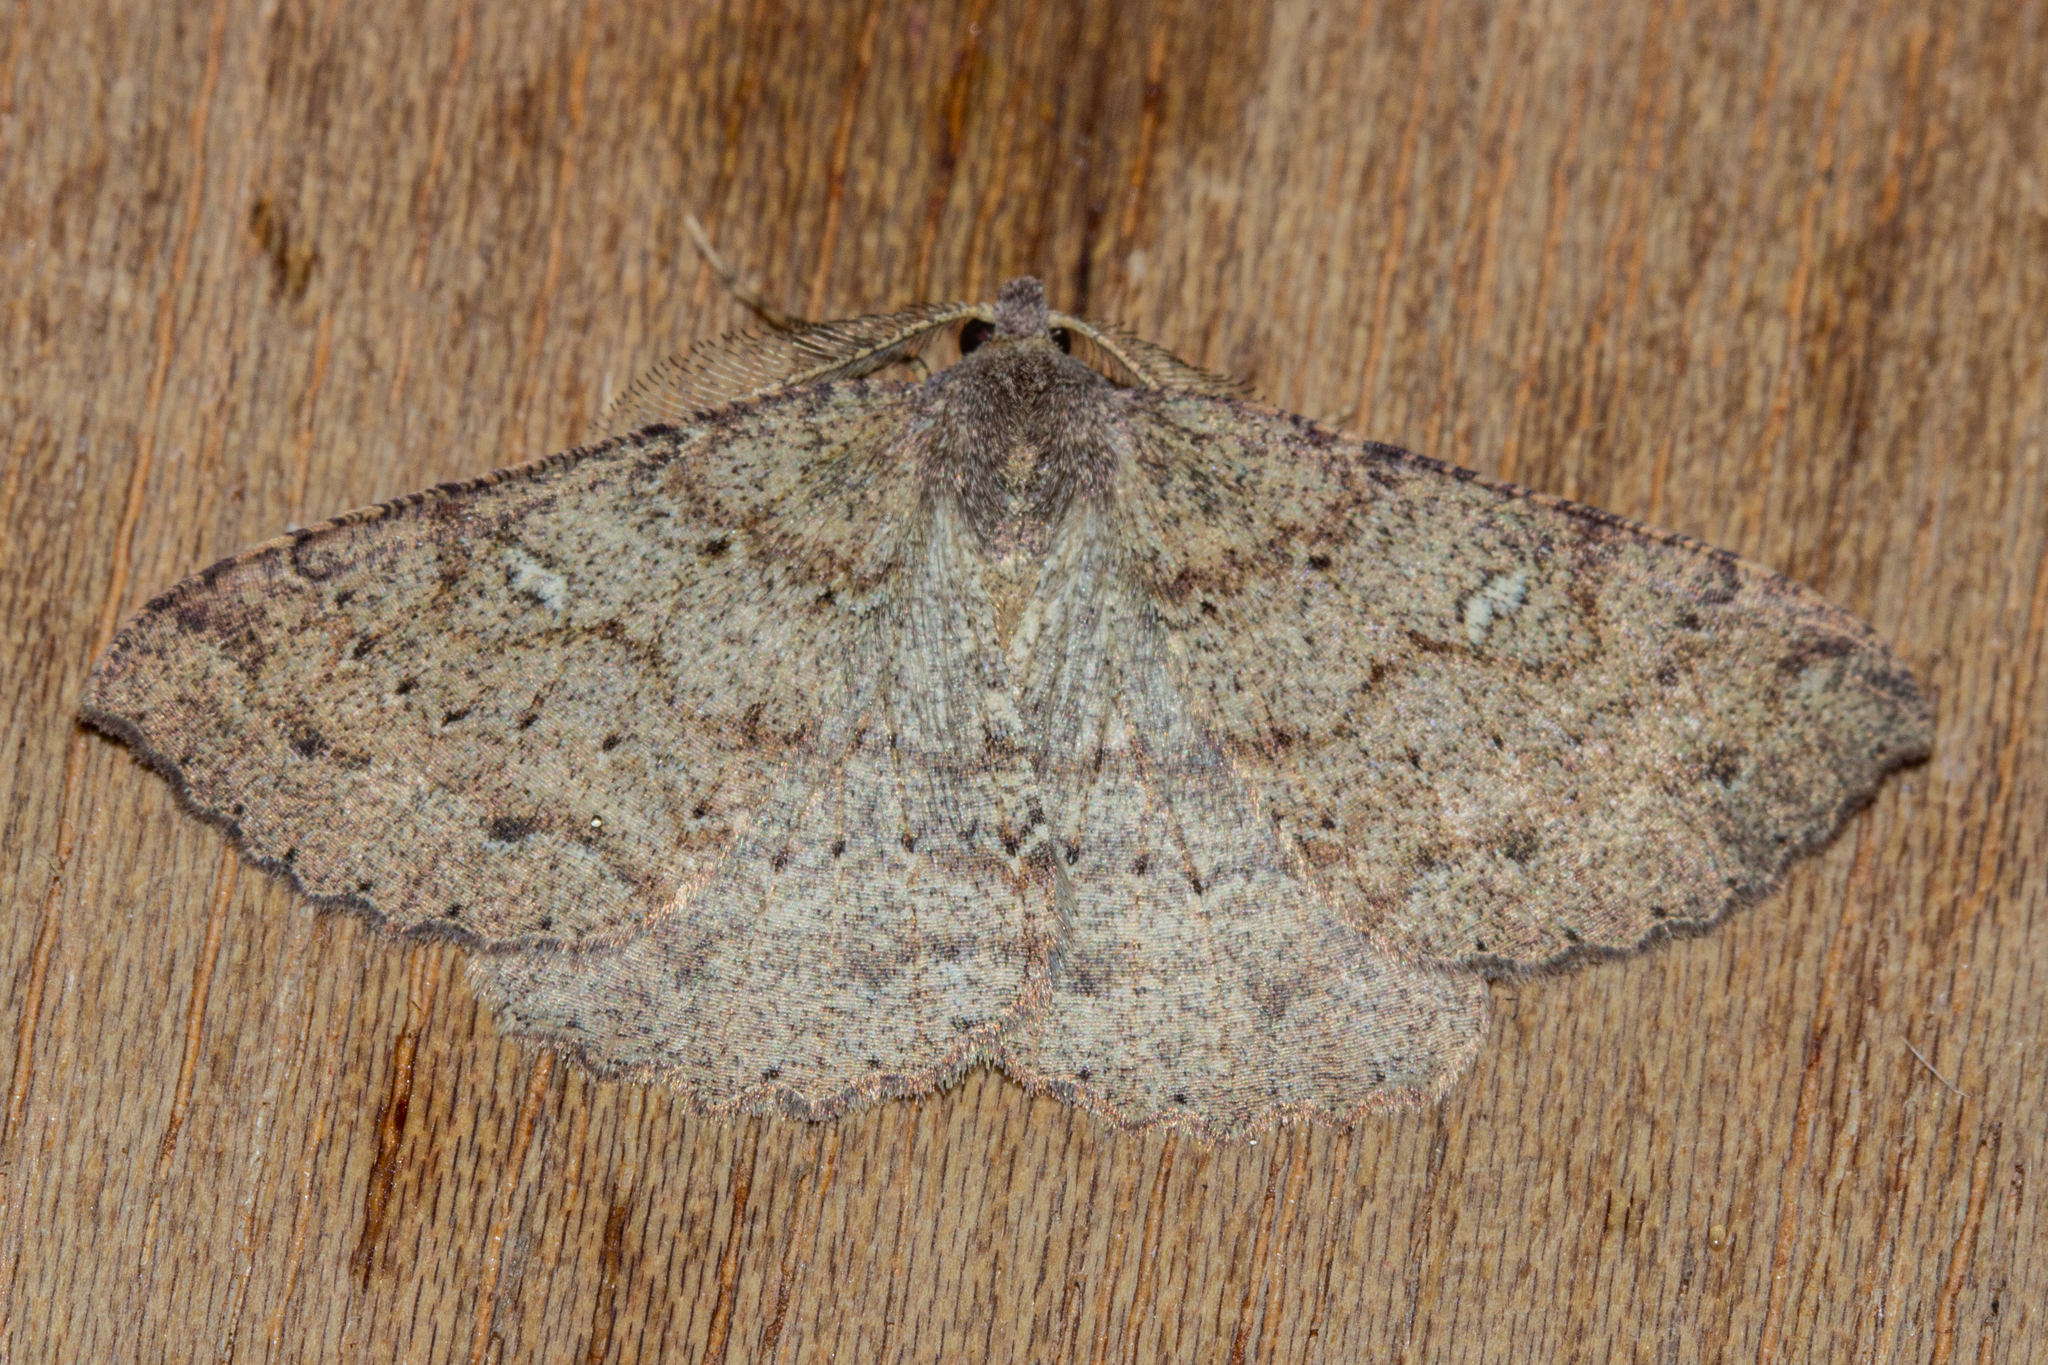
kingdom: Animalia
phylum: Arthropoda
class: Insecta
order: Lepidoptera
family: Geometridae
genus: Cleora
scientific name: Cleora scriptaria
